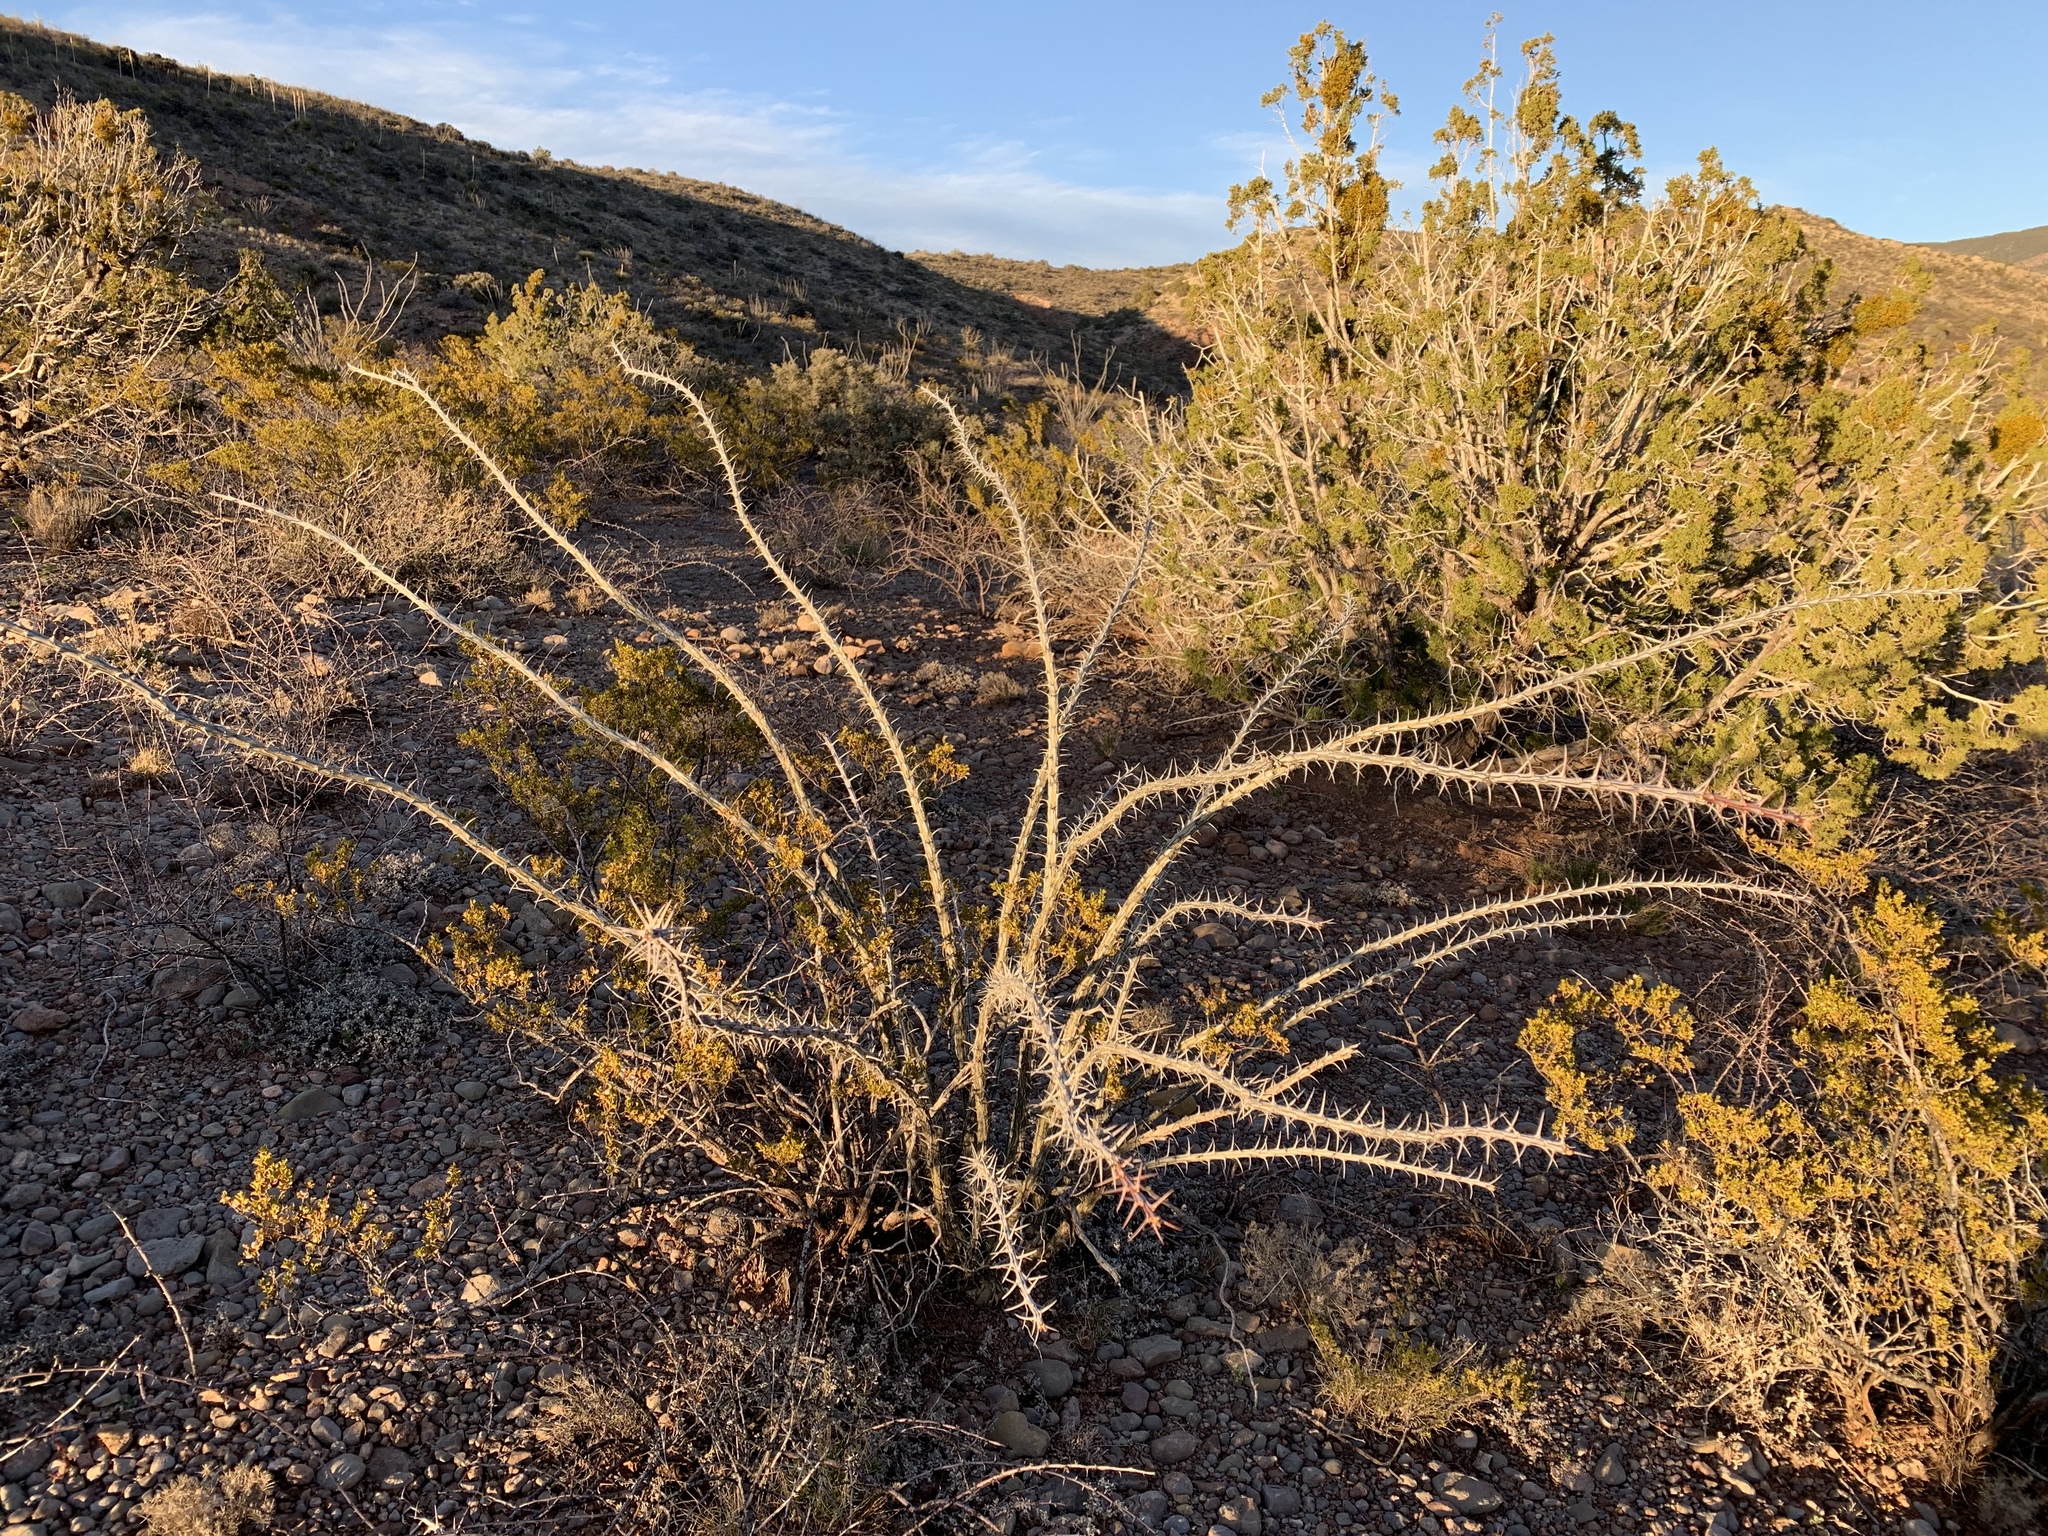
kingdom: Plantae
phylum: Tracheophyta
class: Magnoliopsida
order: Ericales
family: Fouquieriaceae
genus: Fouquieria
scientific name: Fouquieria splendens
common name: Vine-cactus
